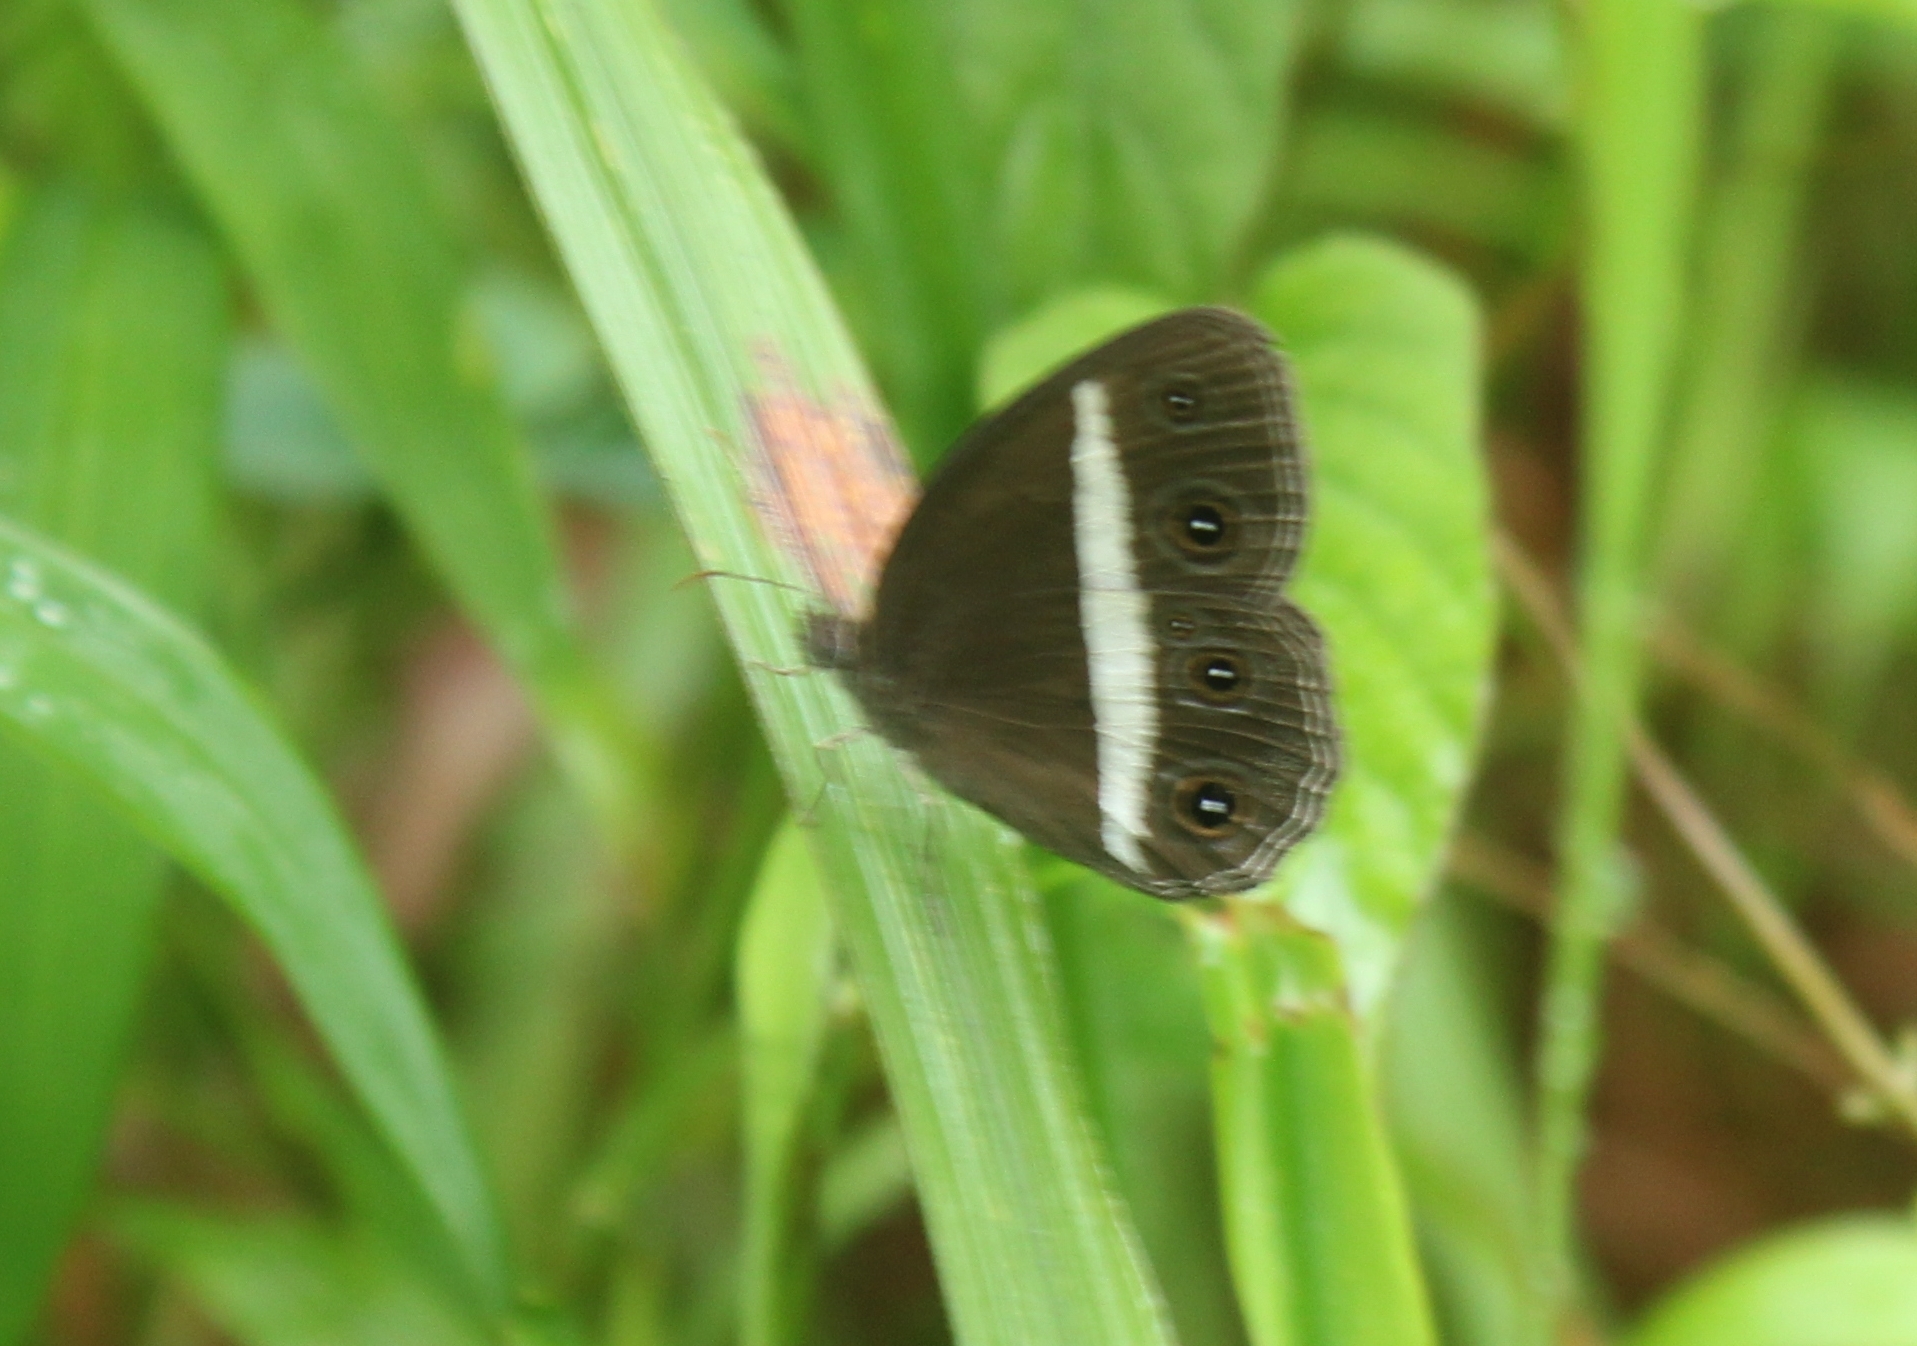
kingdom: Animalia
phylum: Arthropoda
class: Insecta
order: Lepidoptera
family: Nymphalidae
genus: Orsotriaena
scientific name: Orsotriaena medus
